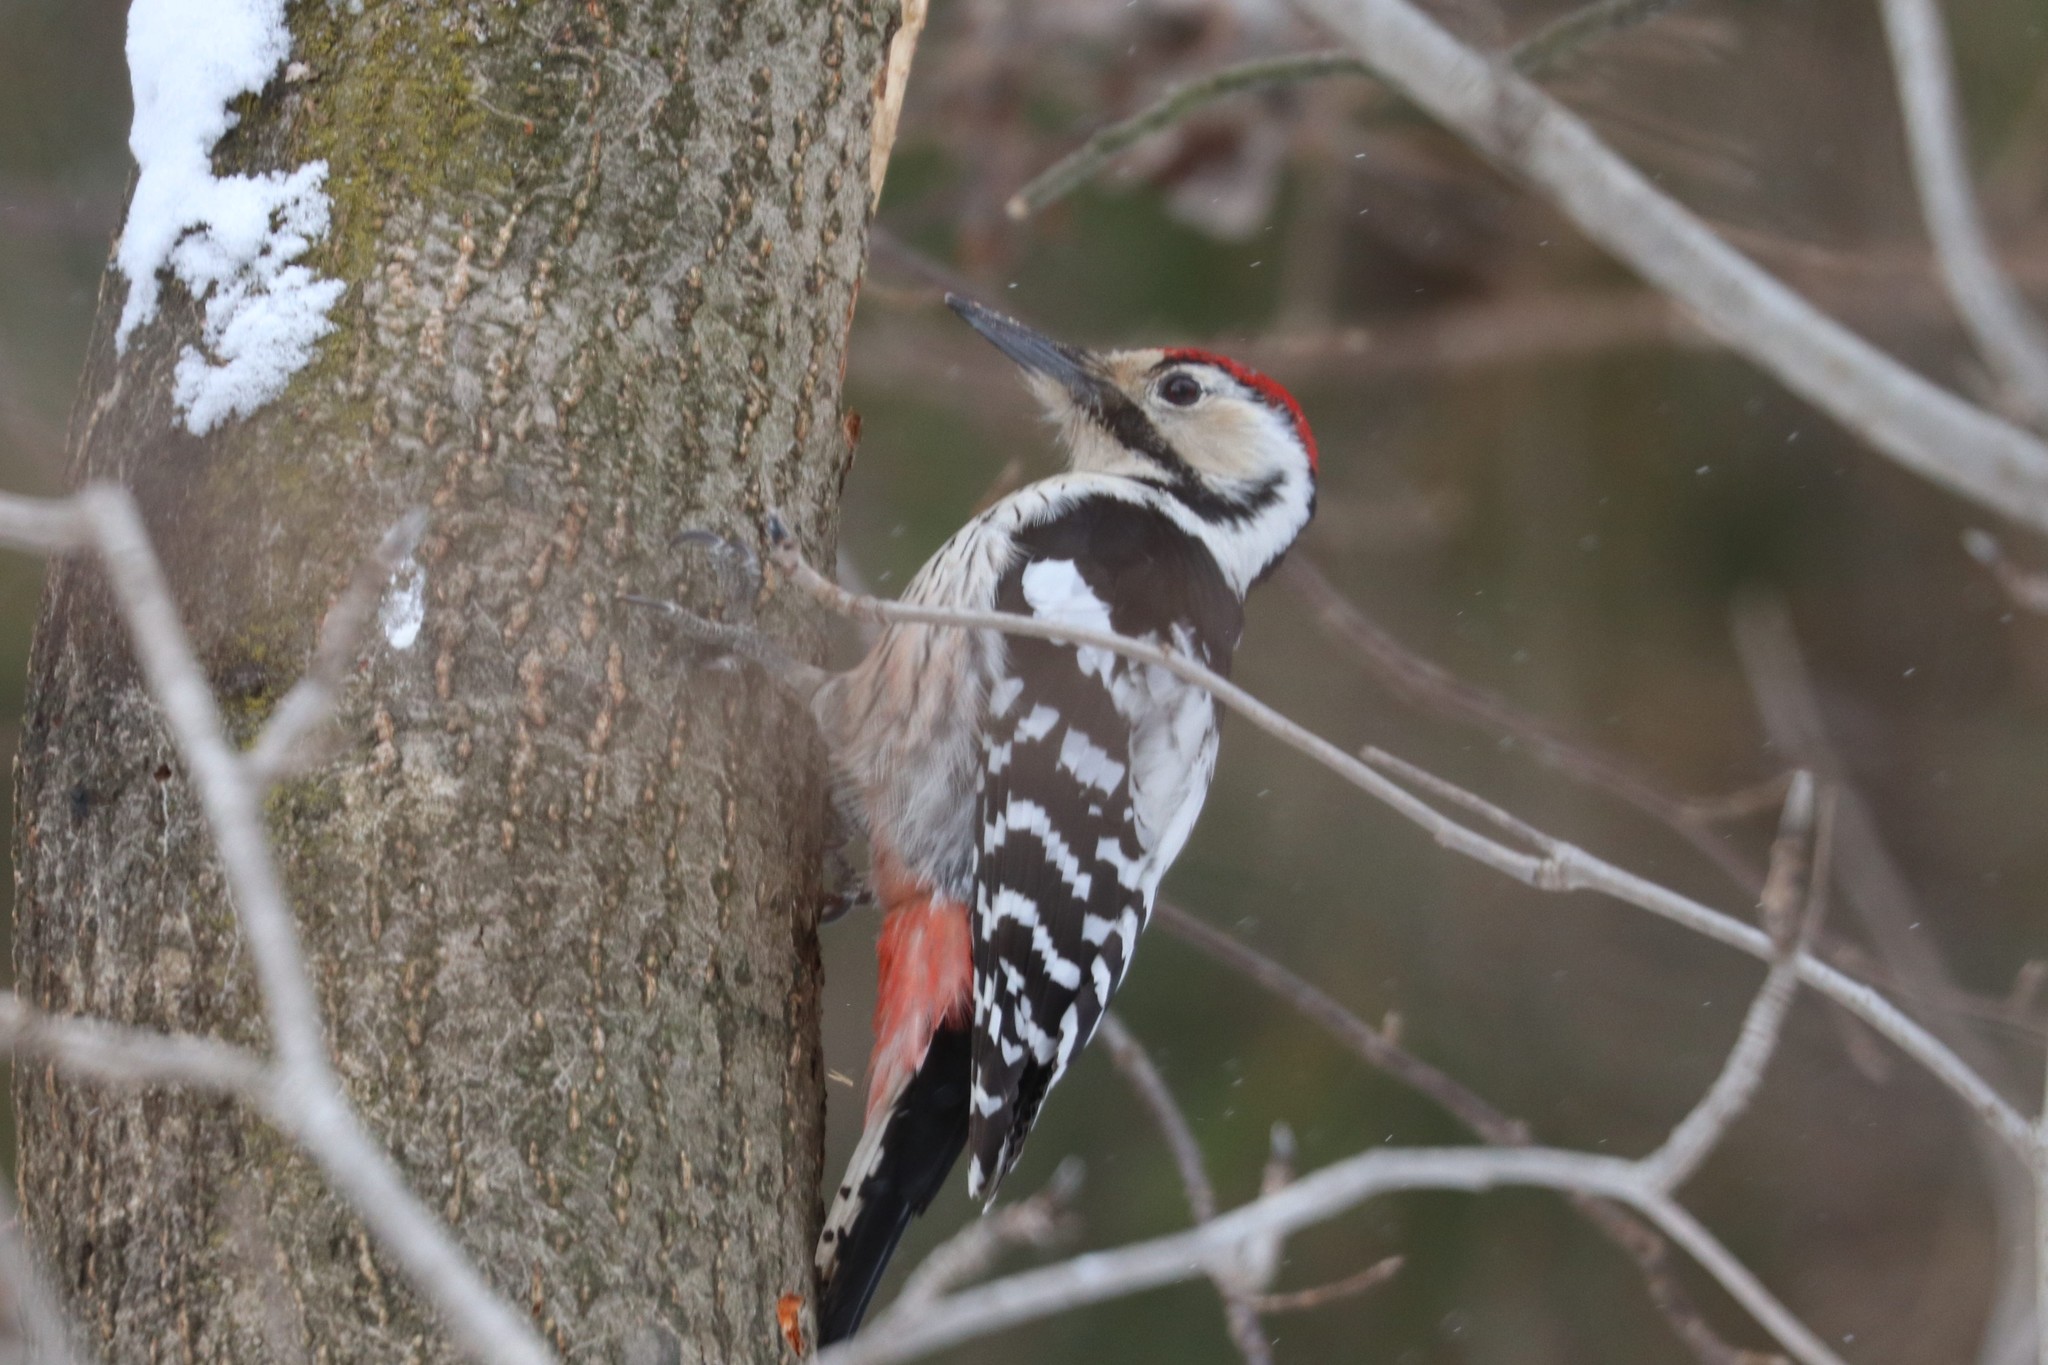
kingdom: Animalia
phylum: Chordata
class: Aves
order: Piciformes
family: Picidae
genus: Dendrocopos
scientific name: Dendrocopos leucotos
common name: White-backed woodpecker
